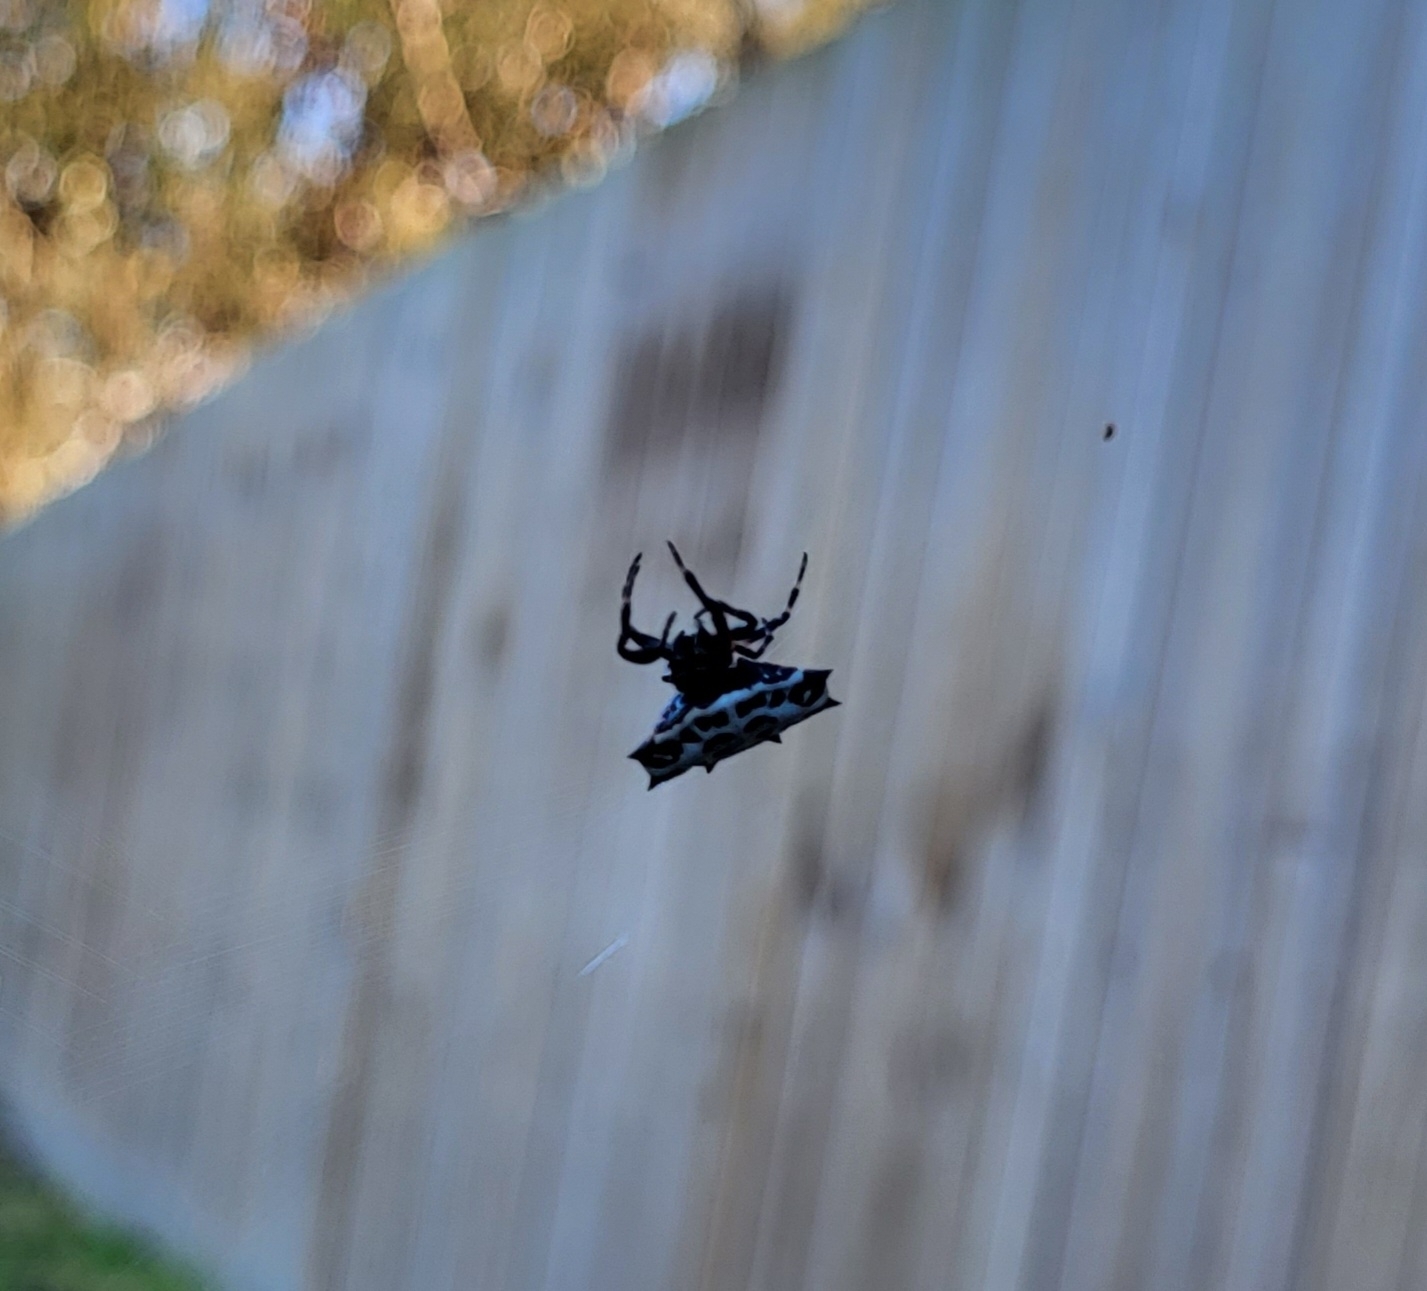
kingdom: Animalia
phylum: Arthropoda
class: Arachnida
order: Araneae
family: Araneidae
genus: Gasteracantha
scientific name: Gasteracantha cancriformis
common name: Orb weavers
